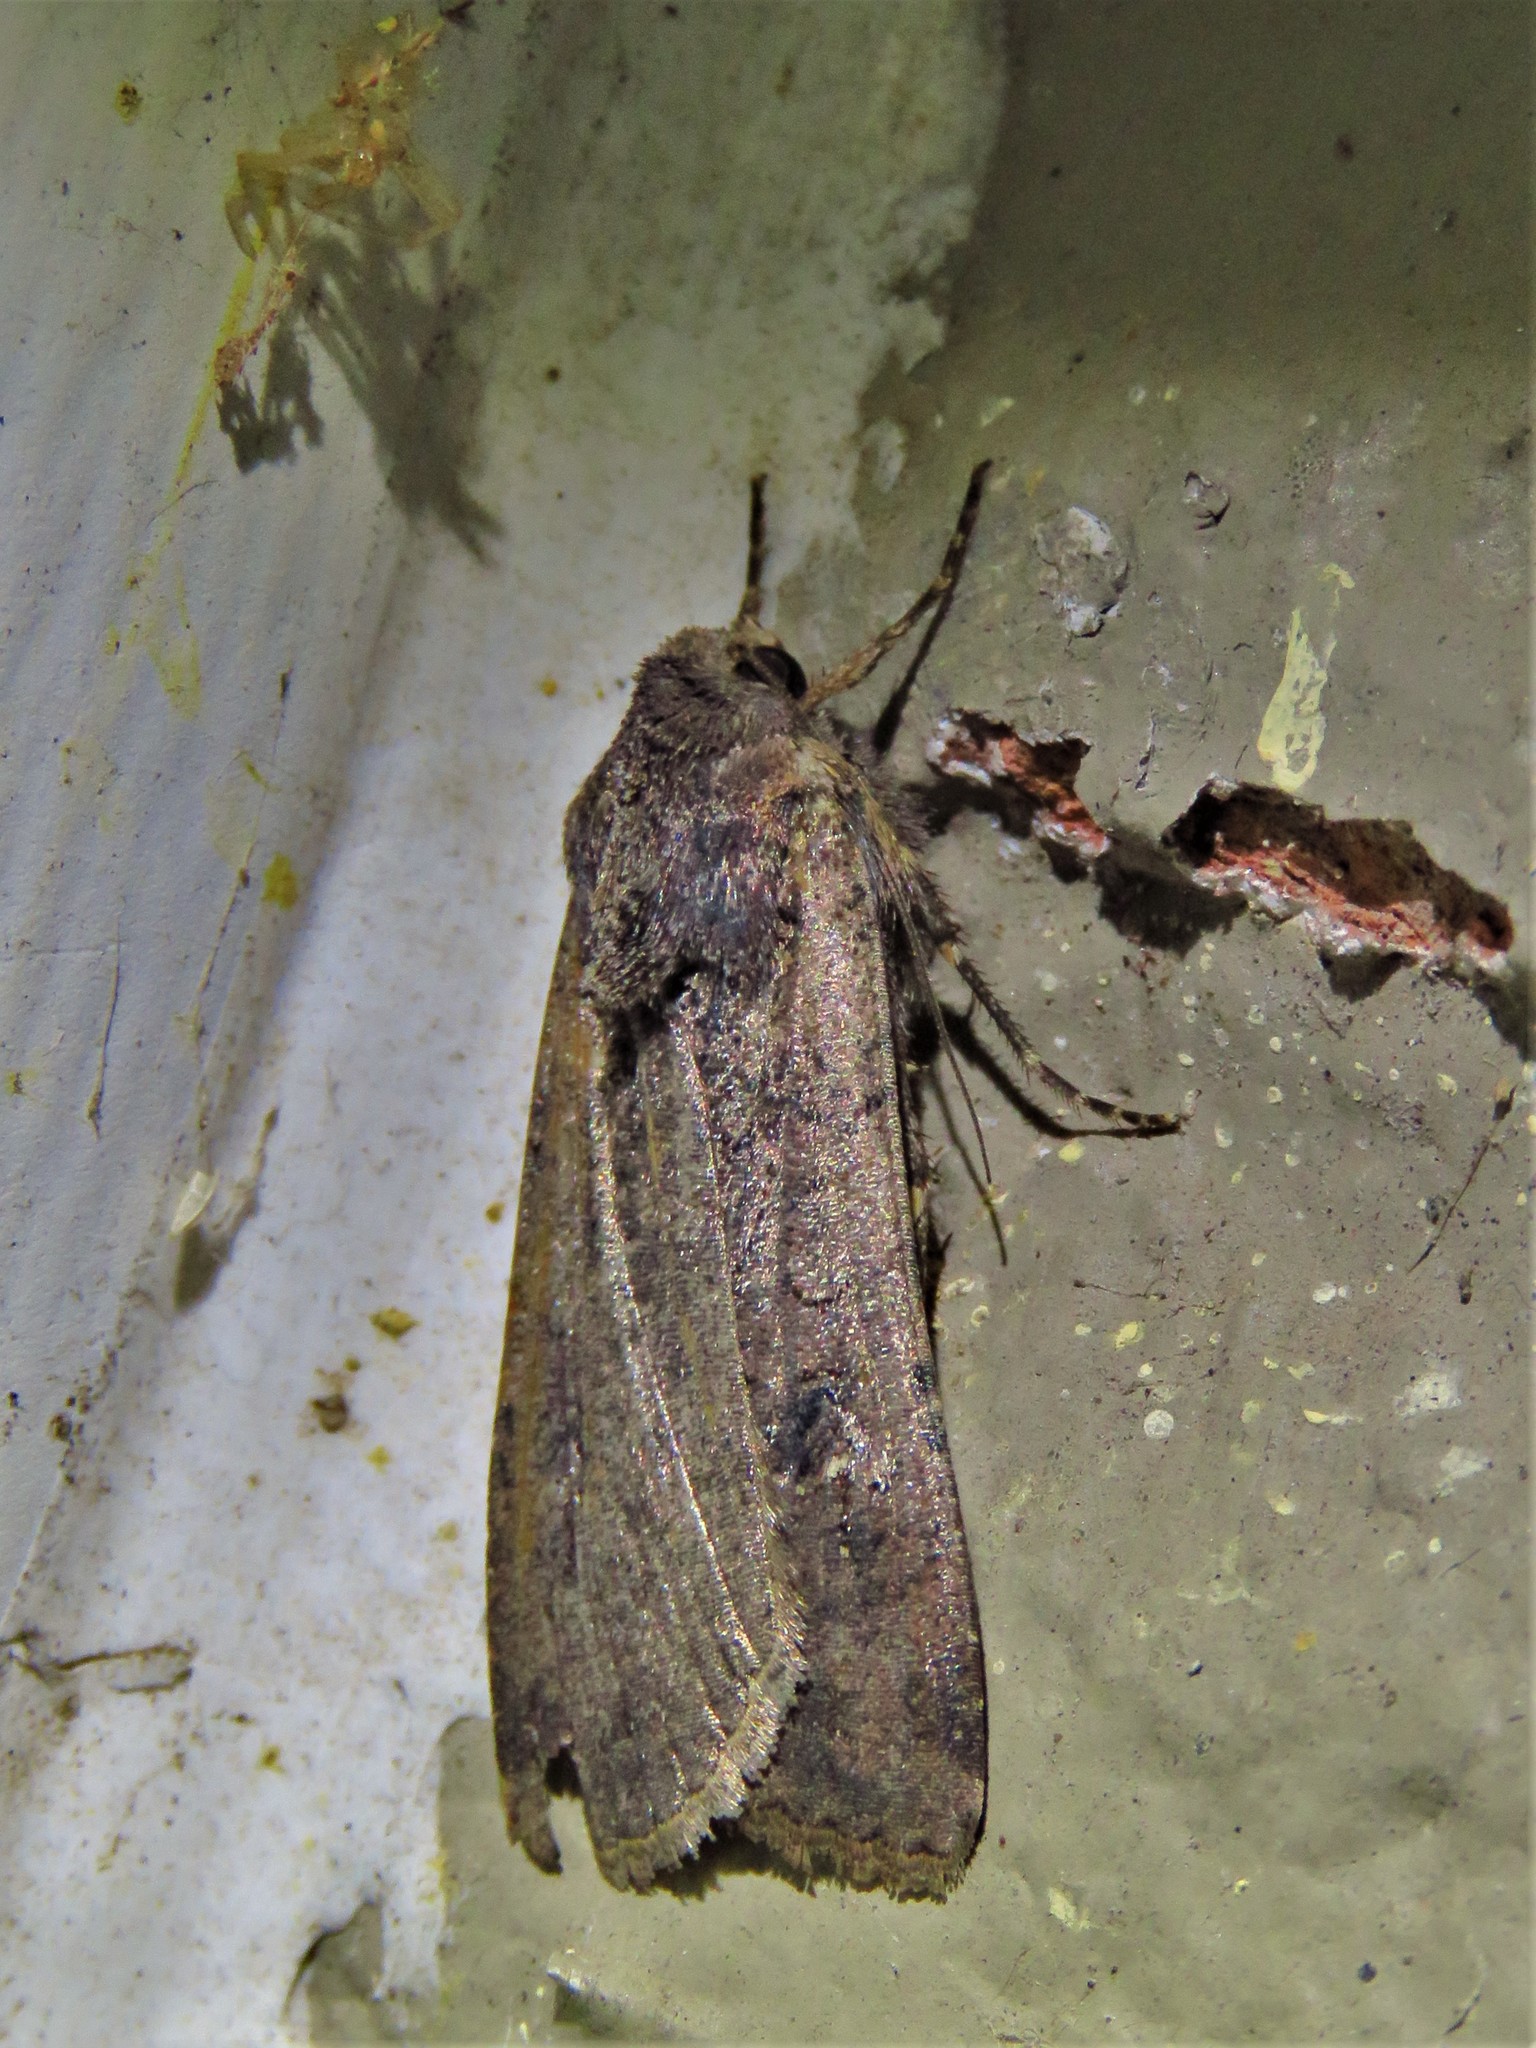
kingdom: Animalia
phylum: Arthropoda
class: Insecta
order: Lepidoptera
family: Noctuidae
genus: Peridroma
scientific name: Peridroma saucia
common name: Pearly underwing
